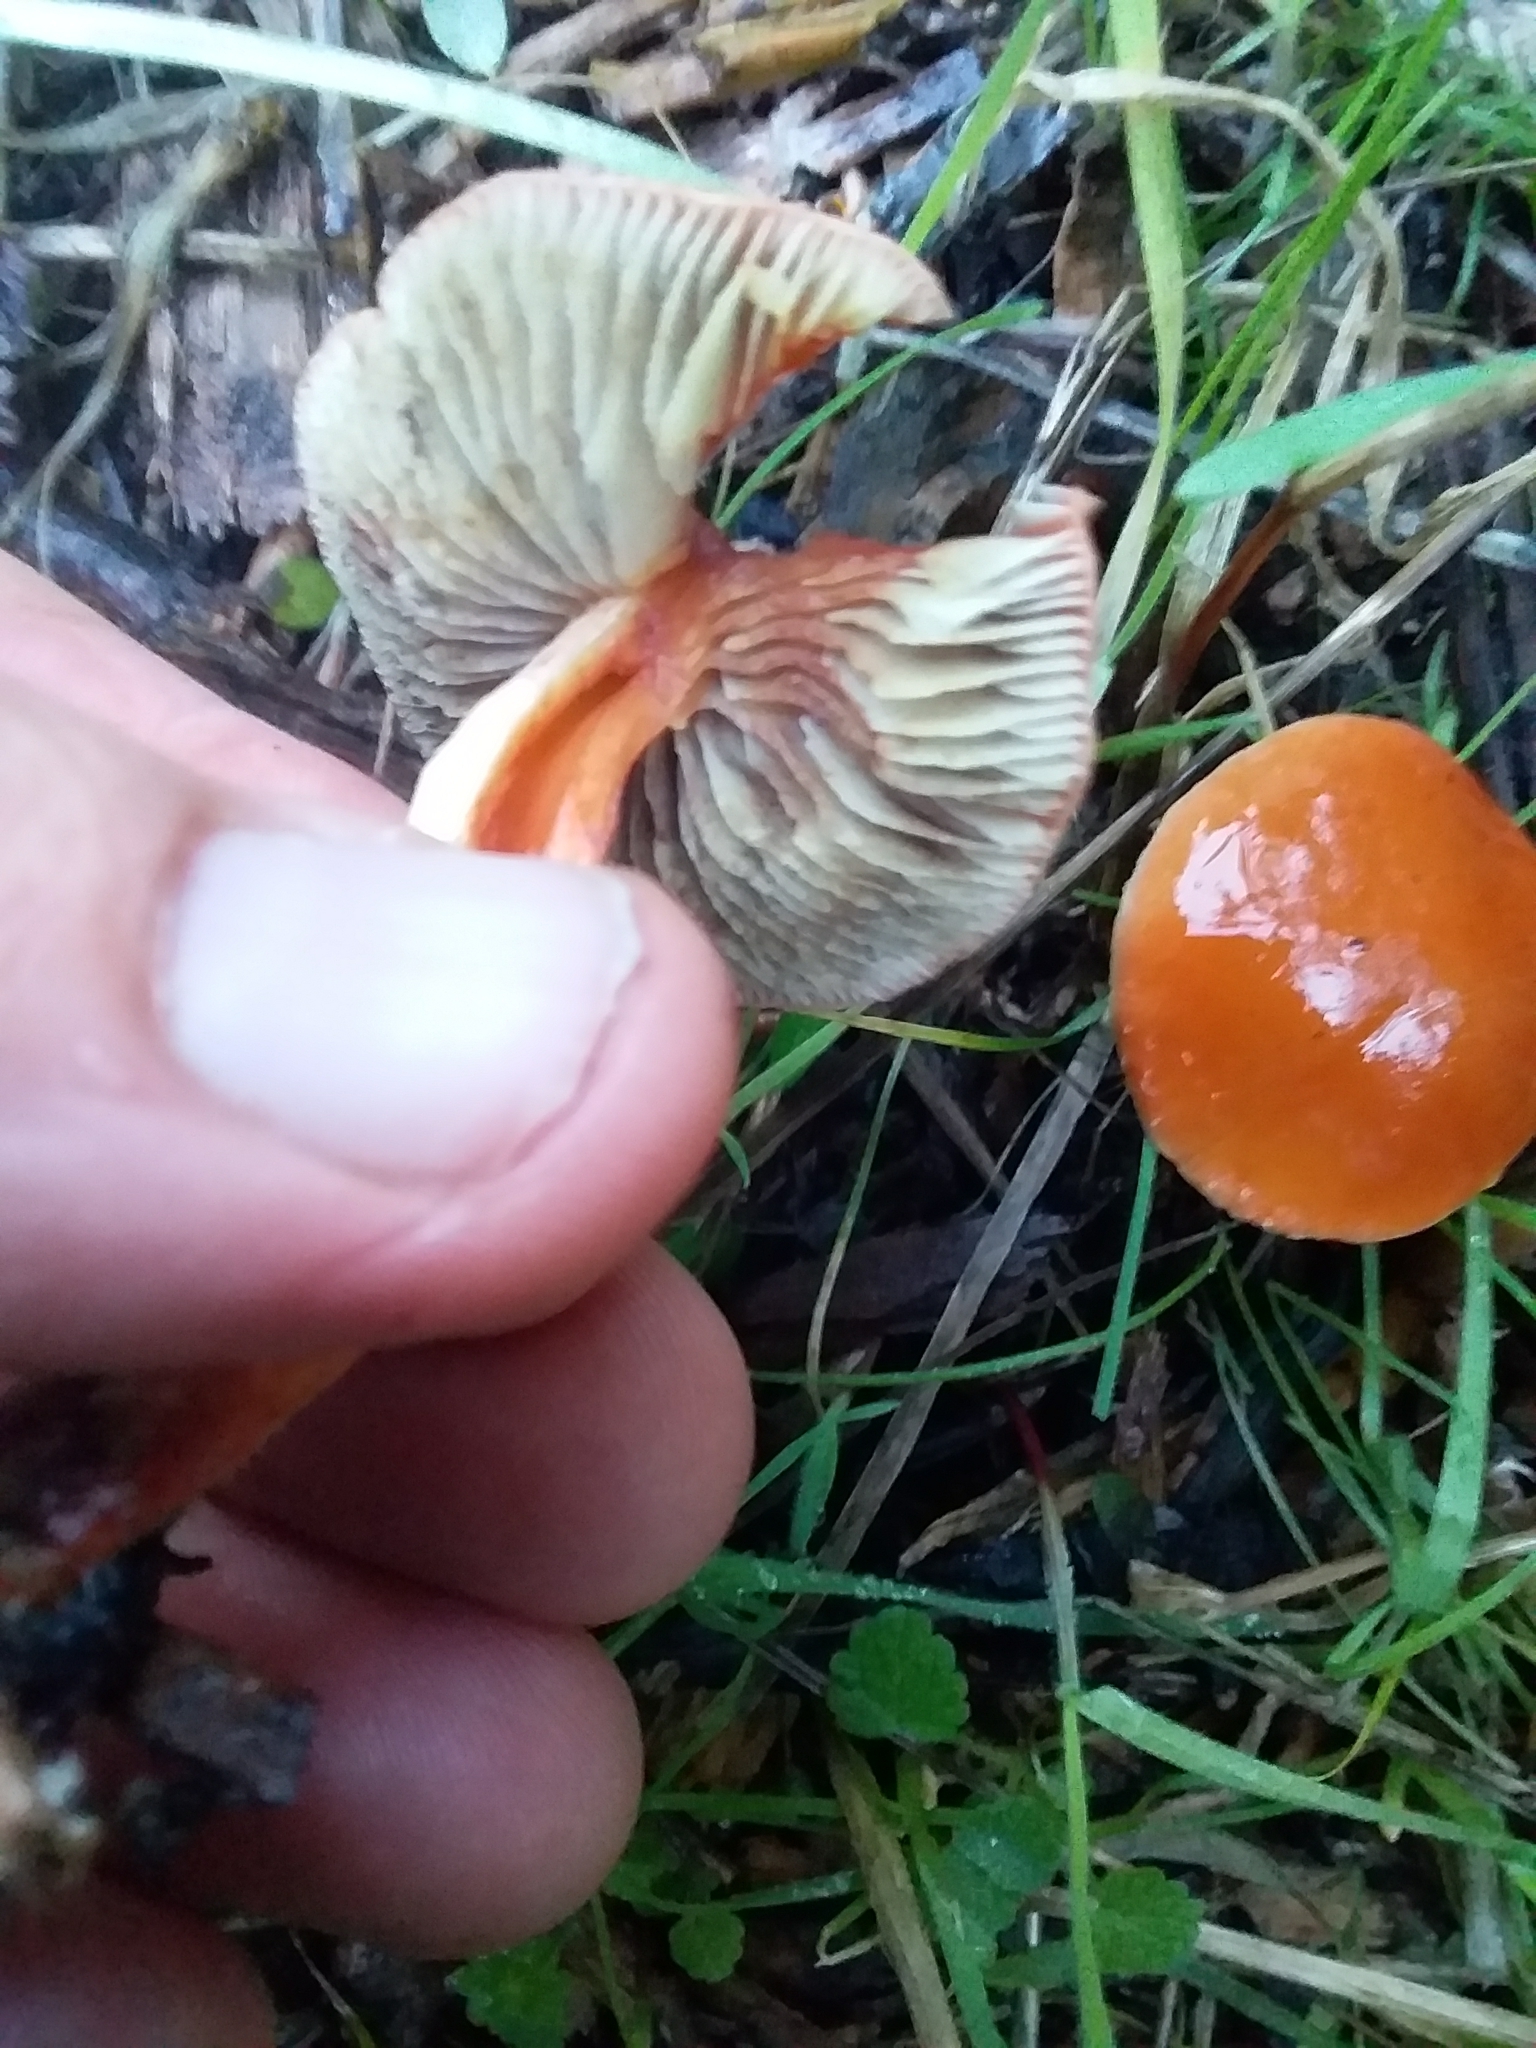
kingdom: Fungi
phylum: Basidiomycota
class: Agaricomycetes
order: Agaricales
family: Strophariaceae
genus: Leratiomyces
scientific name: Leratiomyces ceres
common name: Redlead roundhead
